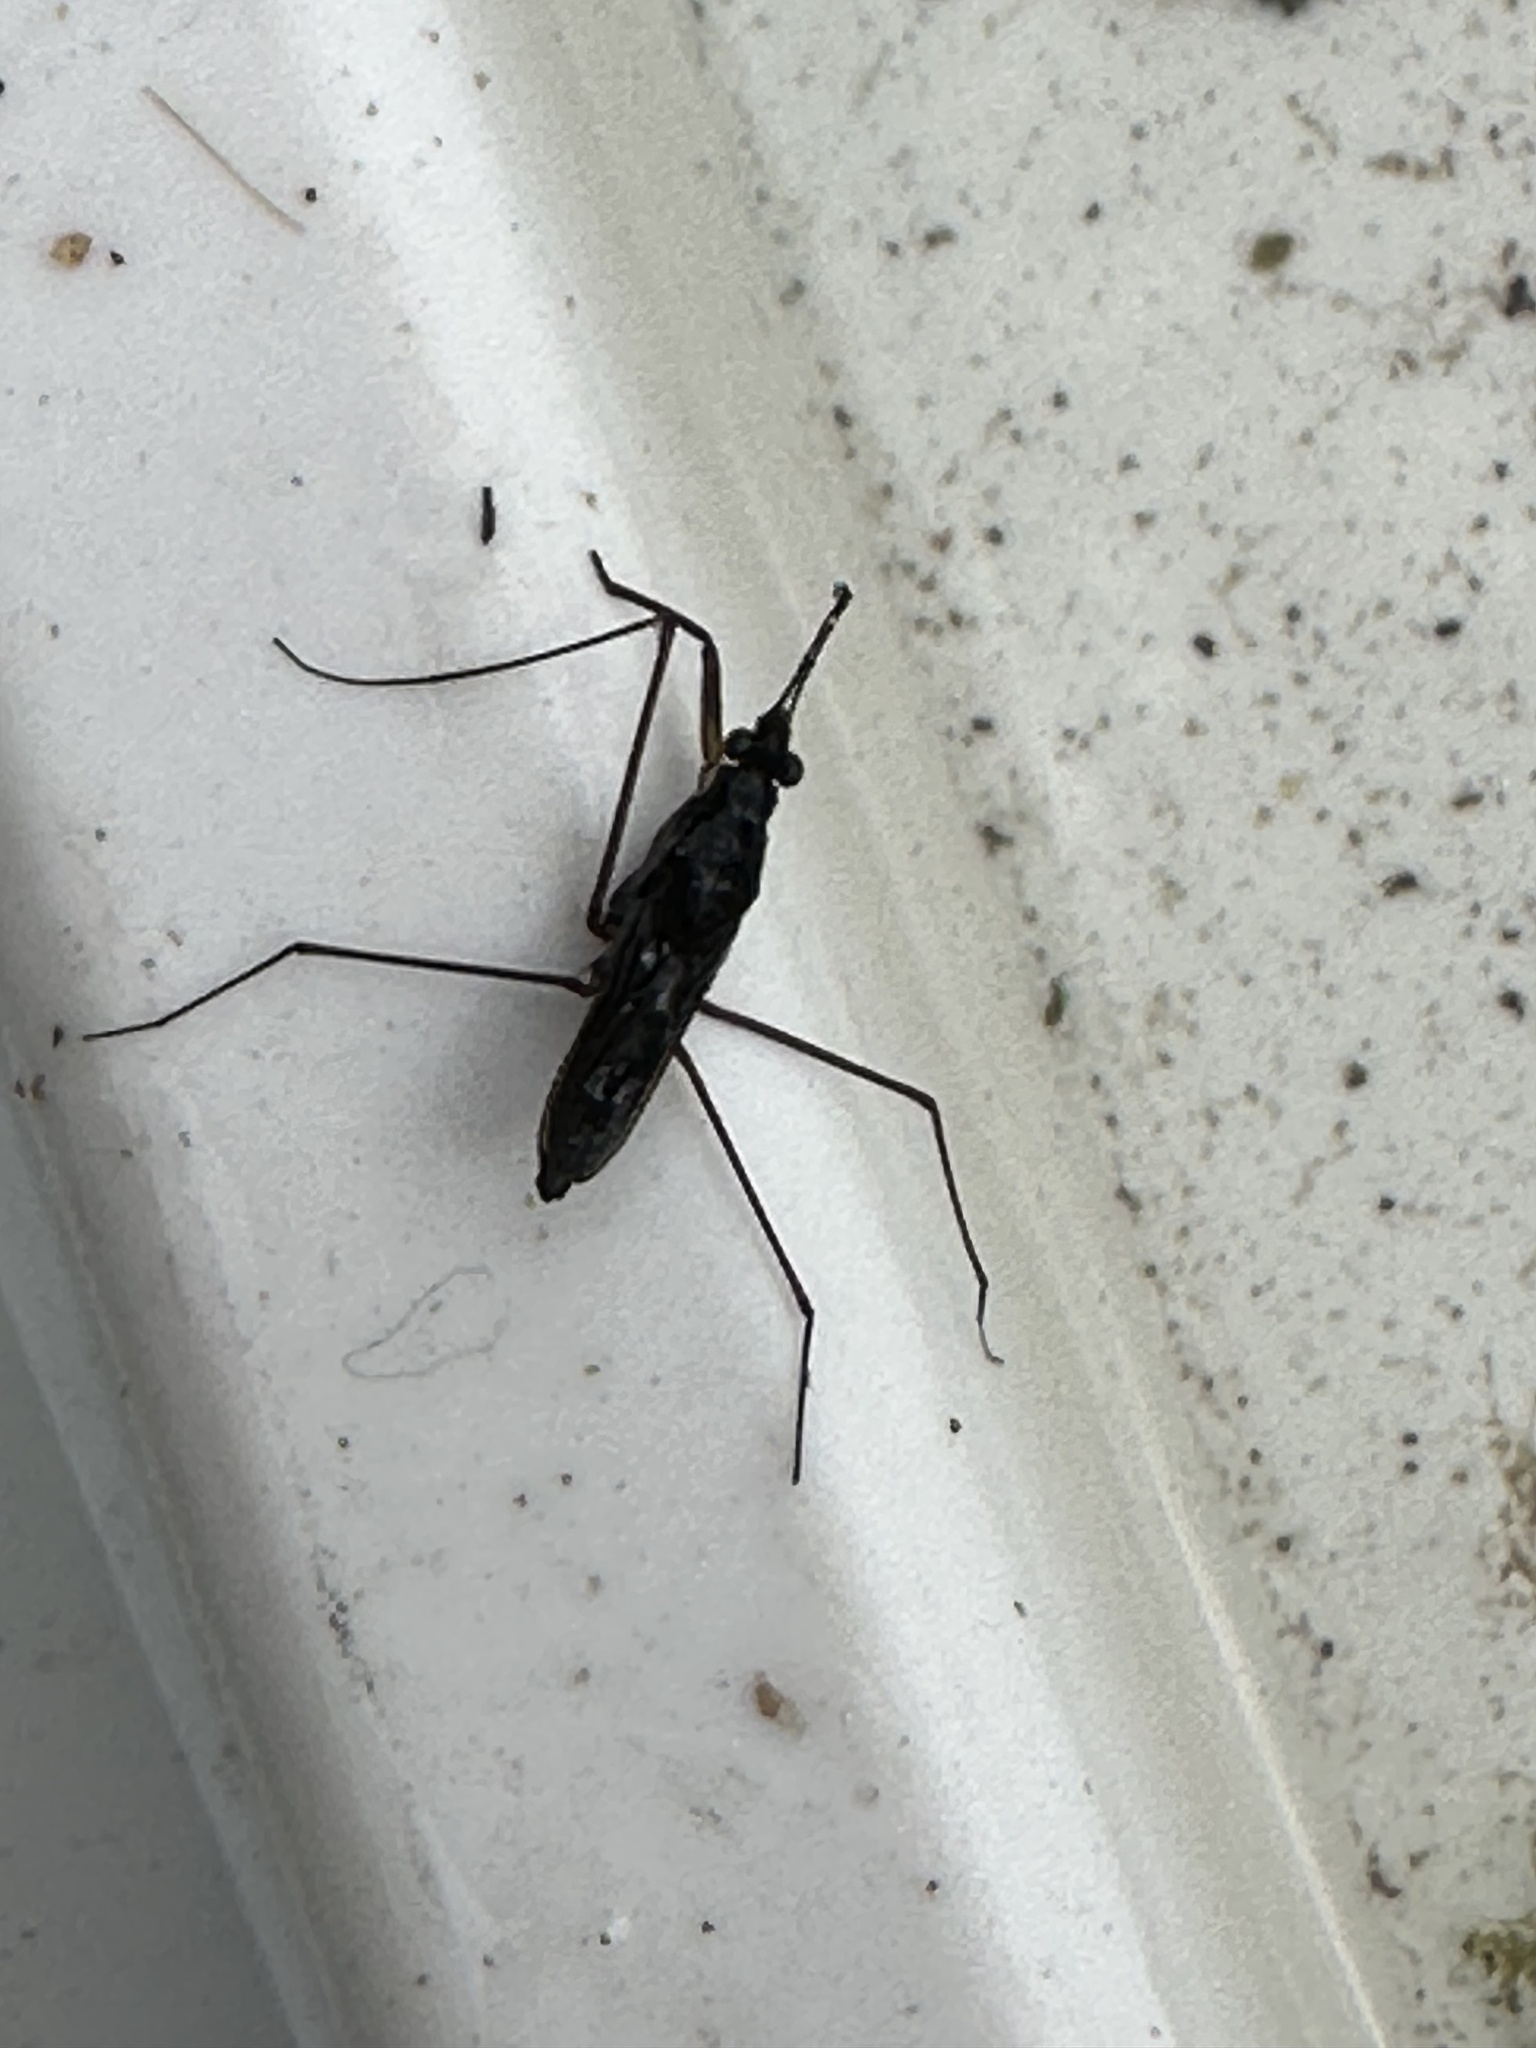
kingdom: Animalia
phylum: Arthropoda
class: Insecta
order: Hemiptera
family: Gerridae
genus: Gerris
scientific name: Gerris
